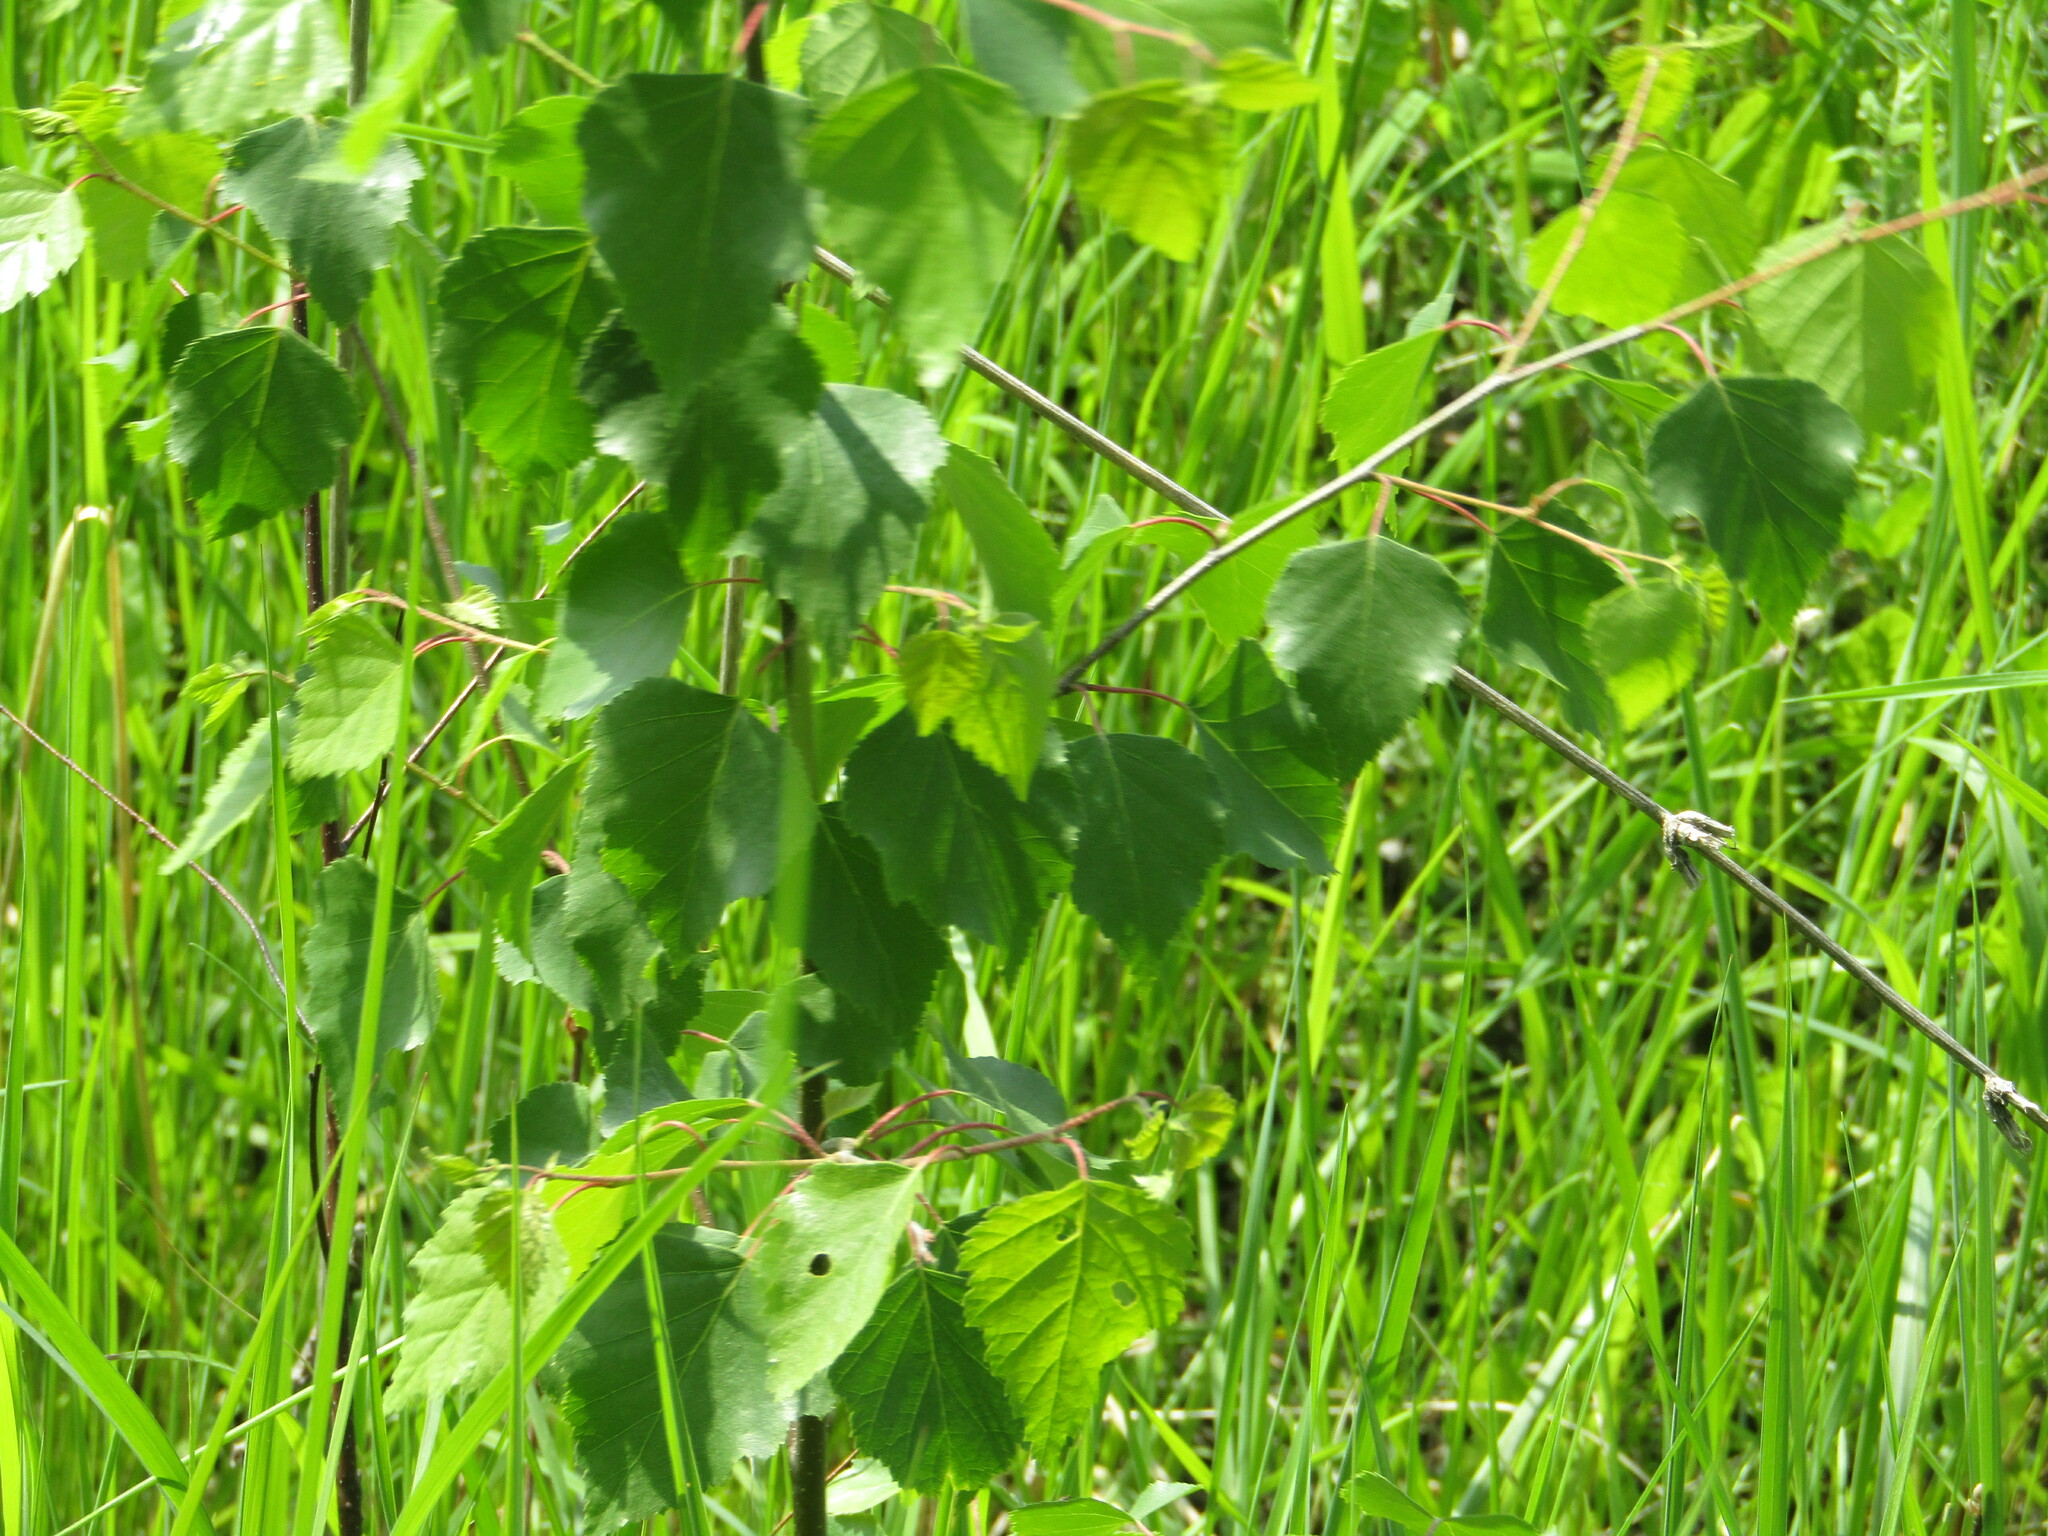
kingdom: Plantae
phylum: Tracheophyta
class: Magnoliopsida
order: Fagales
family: Betulaceae
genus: Betula
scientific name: Betula pendula
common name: Silver birch
